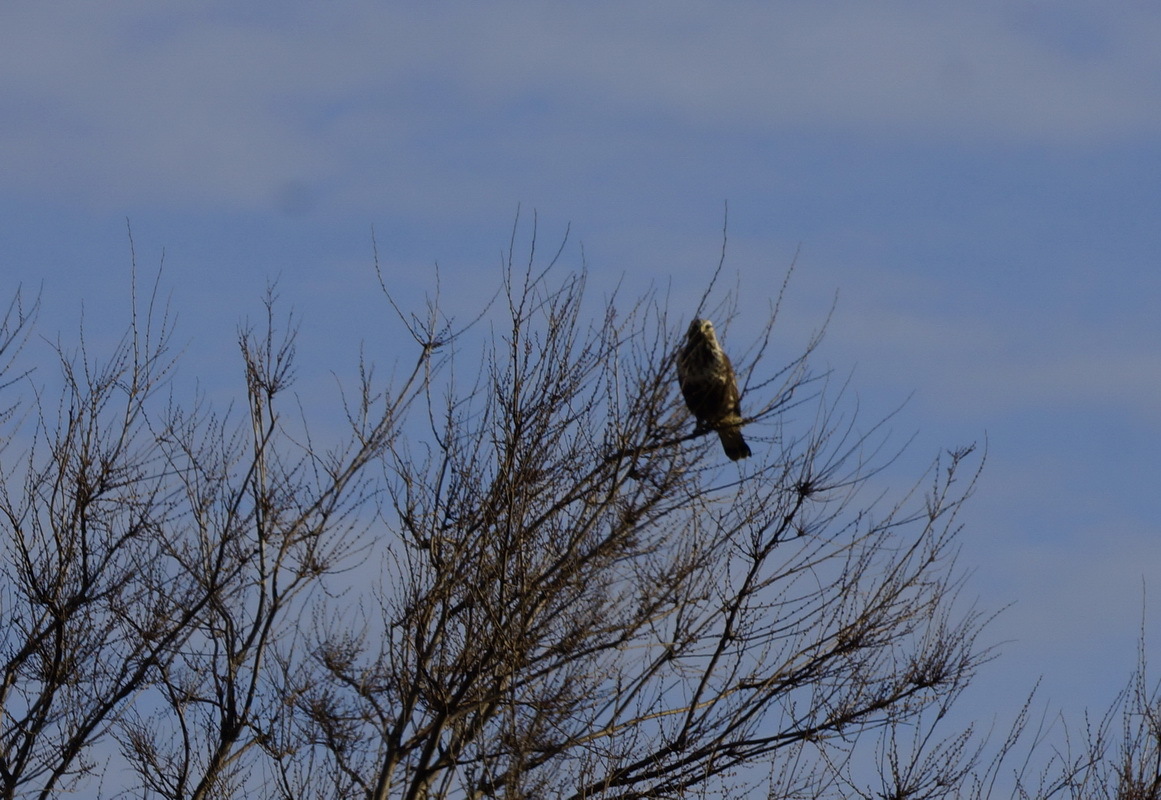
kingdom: Animalia
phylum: Chordata
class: Aves
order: Accipitriformes
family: Accipitridae
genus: Buteo
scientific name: Buteo lagopus
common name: Rough-legged buzzard
